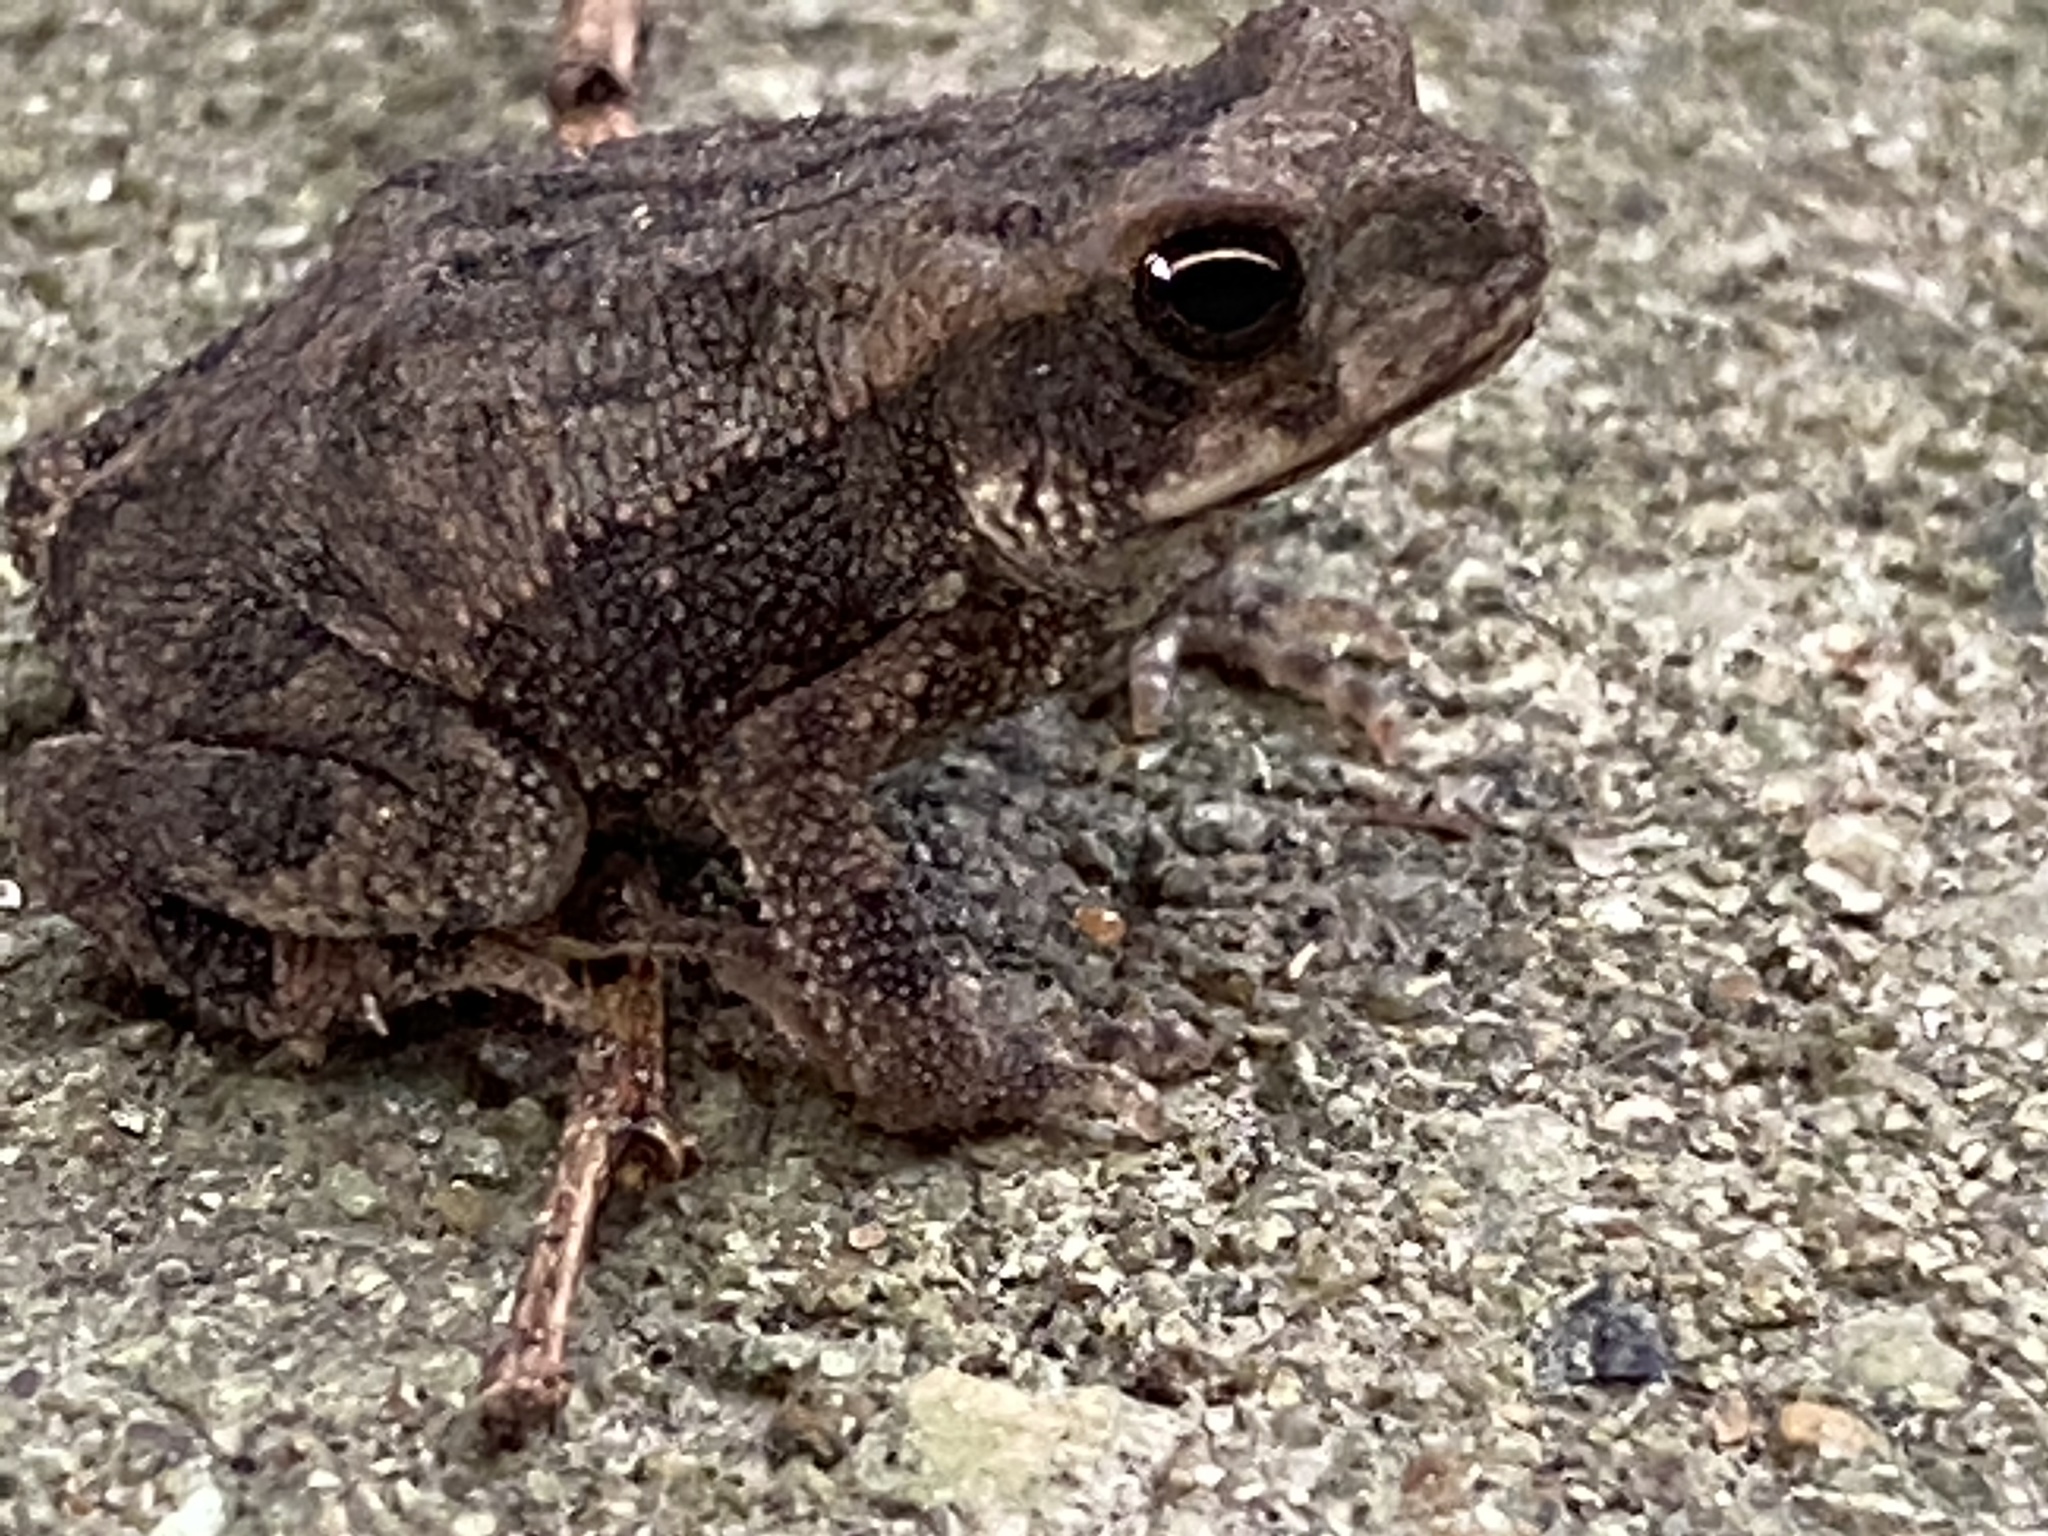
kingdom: Animalia
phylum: Chordata
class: Amphibia
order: Anura
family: Bufonidae
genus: Incilius
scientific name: Incilius nebulifer
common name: Gulf coast toad
